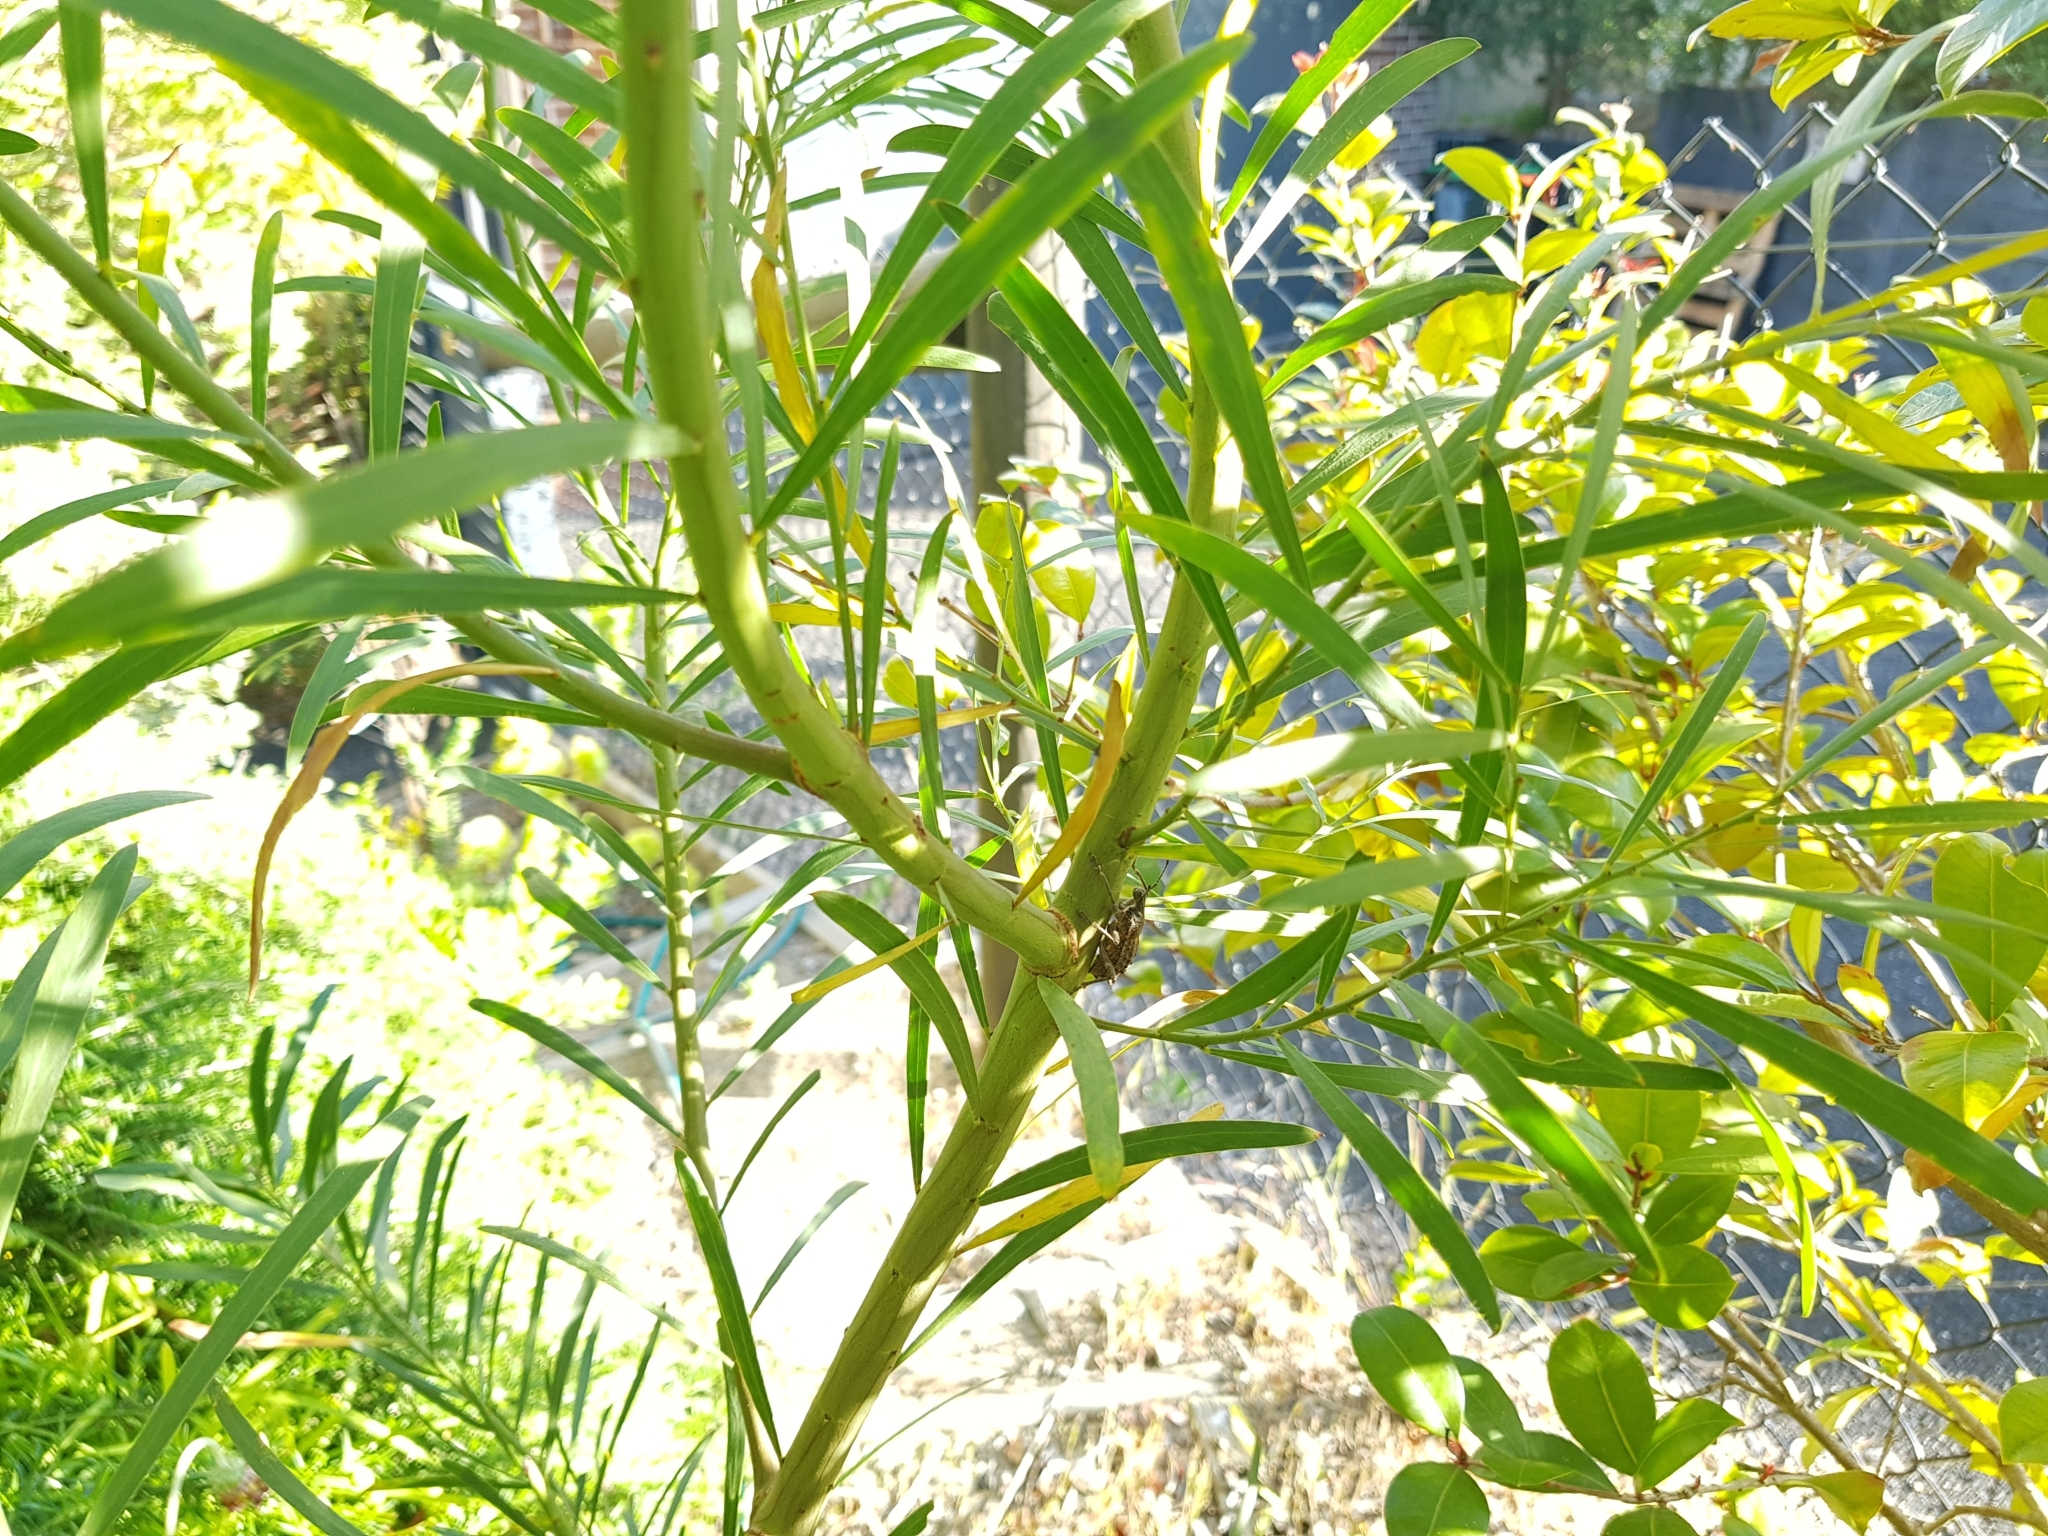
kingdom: Animalia
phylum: Arthropoda
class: Insecta
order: Coleoptera
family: Curculionidae
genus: Leptopius
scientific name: Leptopius duponti
